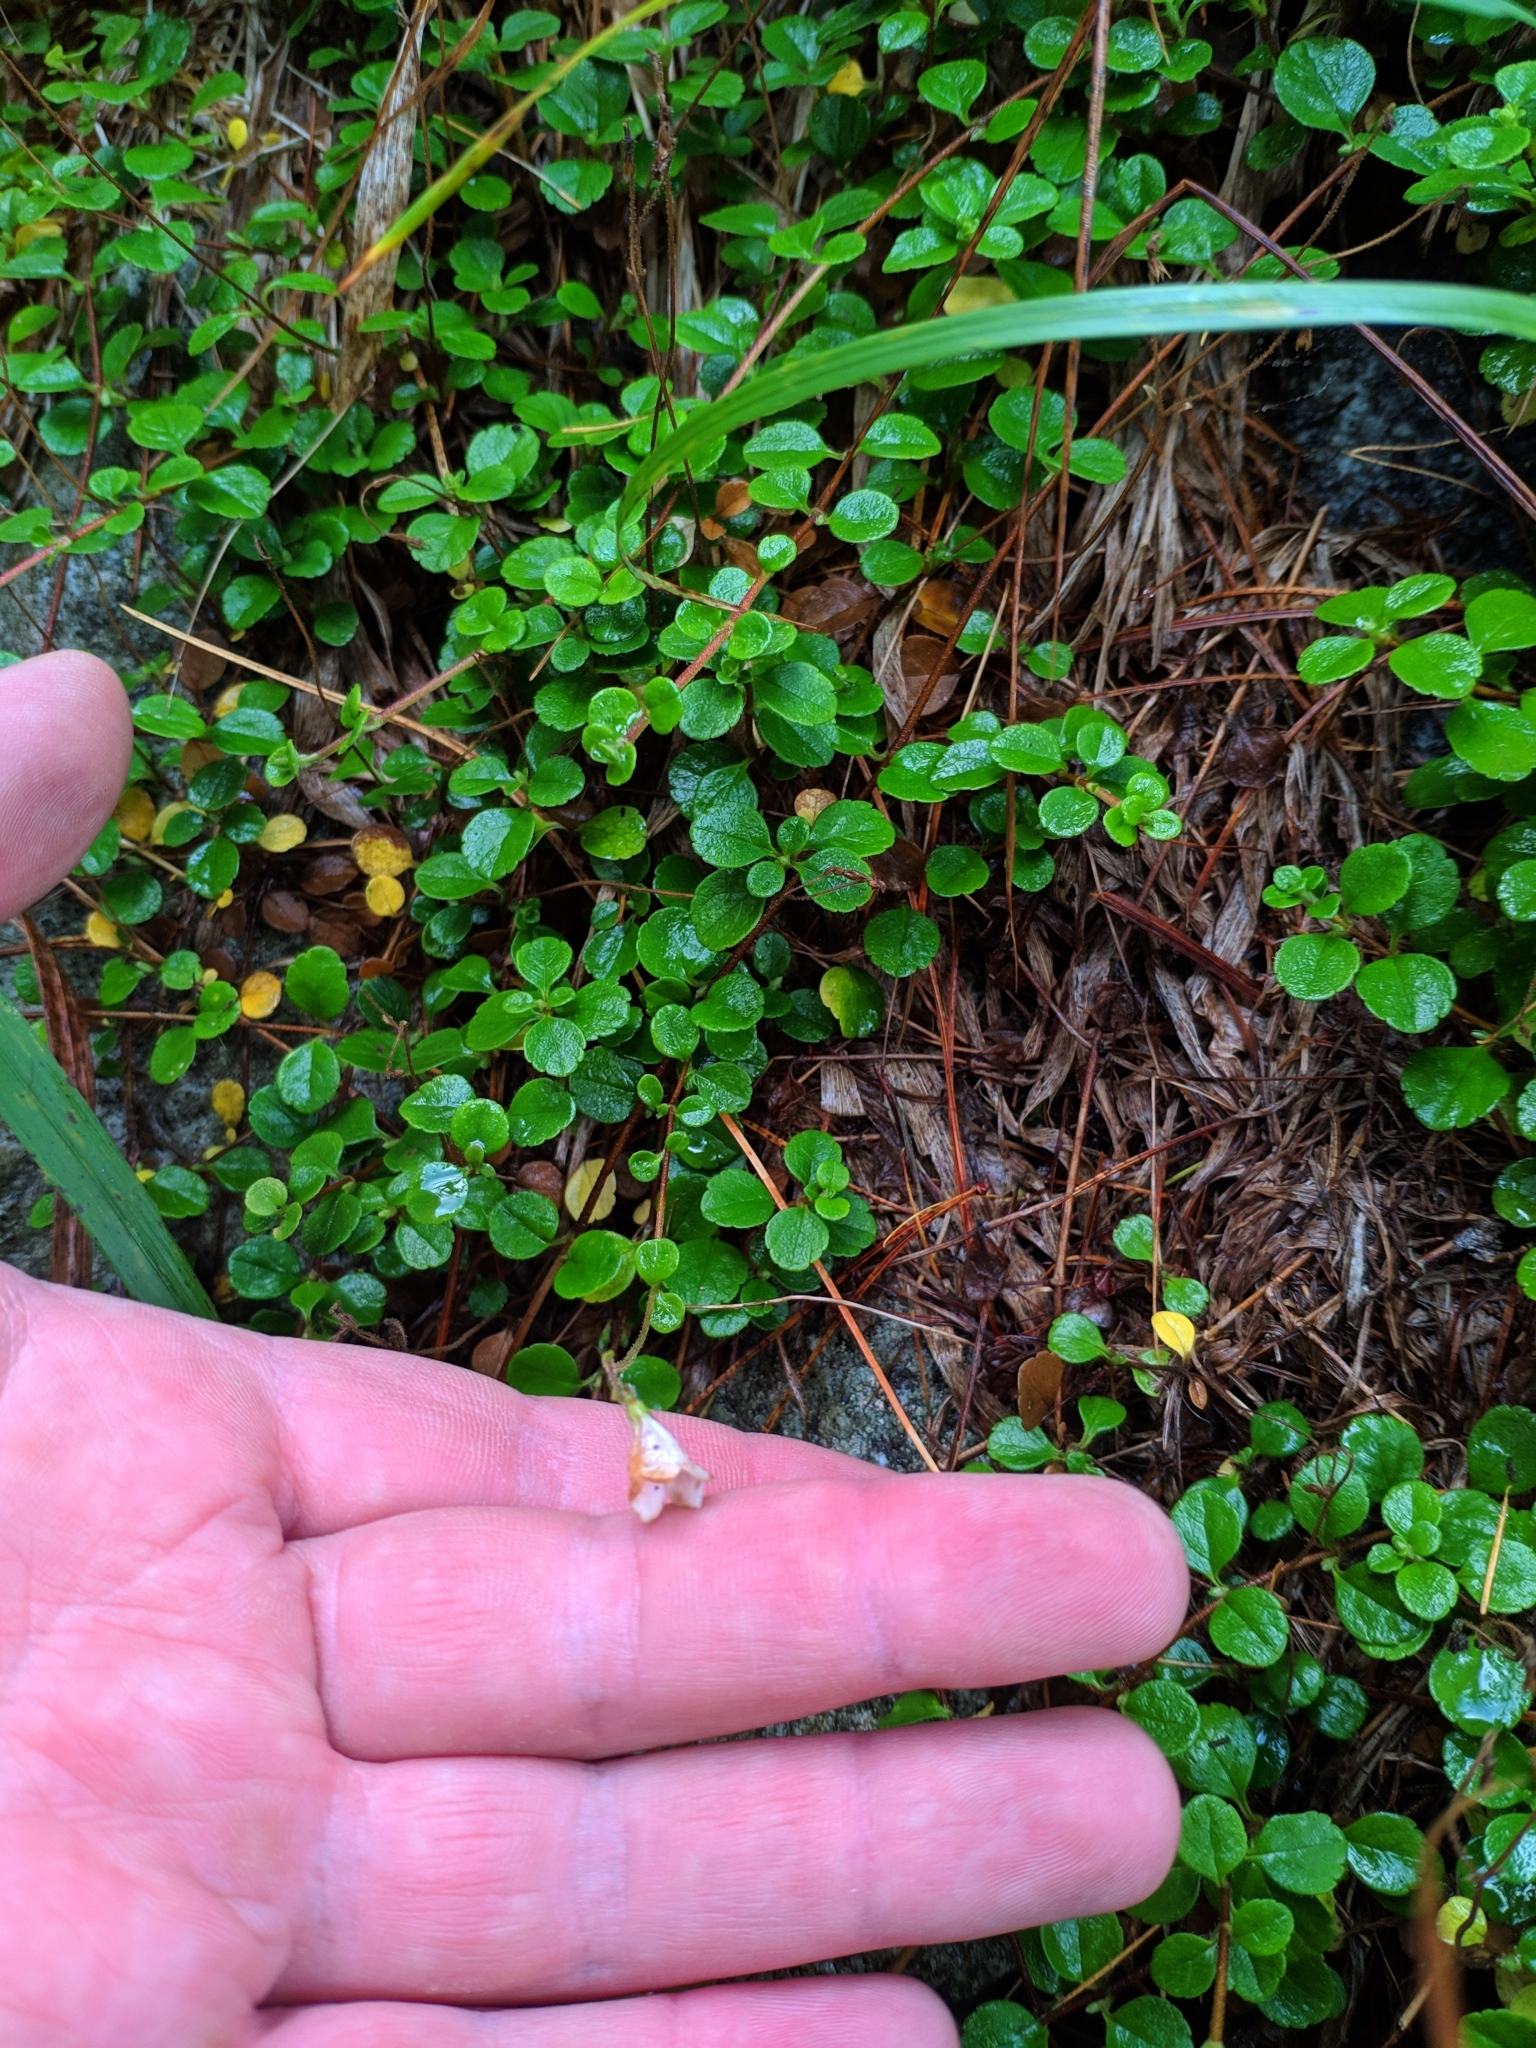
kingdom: Plantae
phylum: Tracheophyta
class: Magnoliopsida
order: Dipsacales
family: Caprifoliaceae
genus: Linnaea
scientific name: Linnaea borealis
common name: Twinflower
